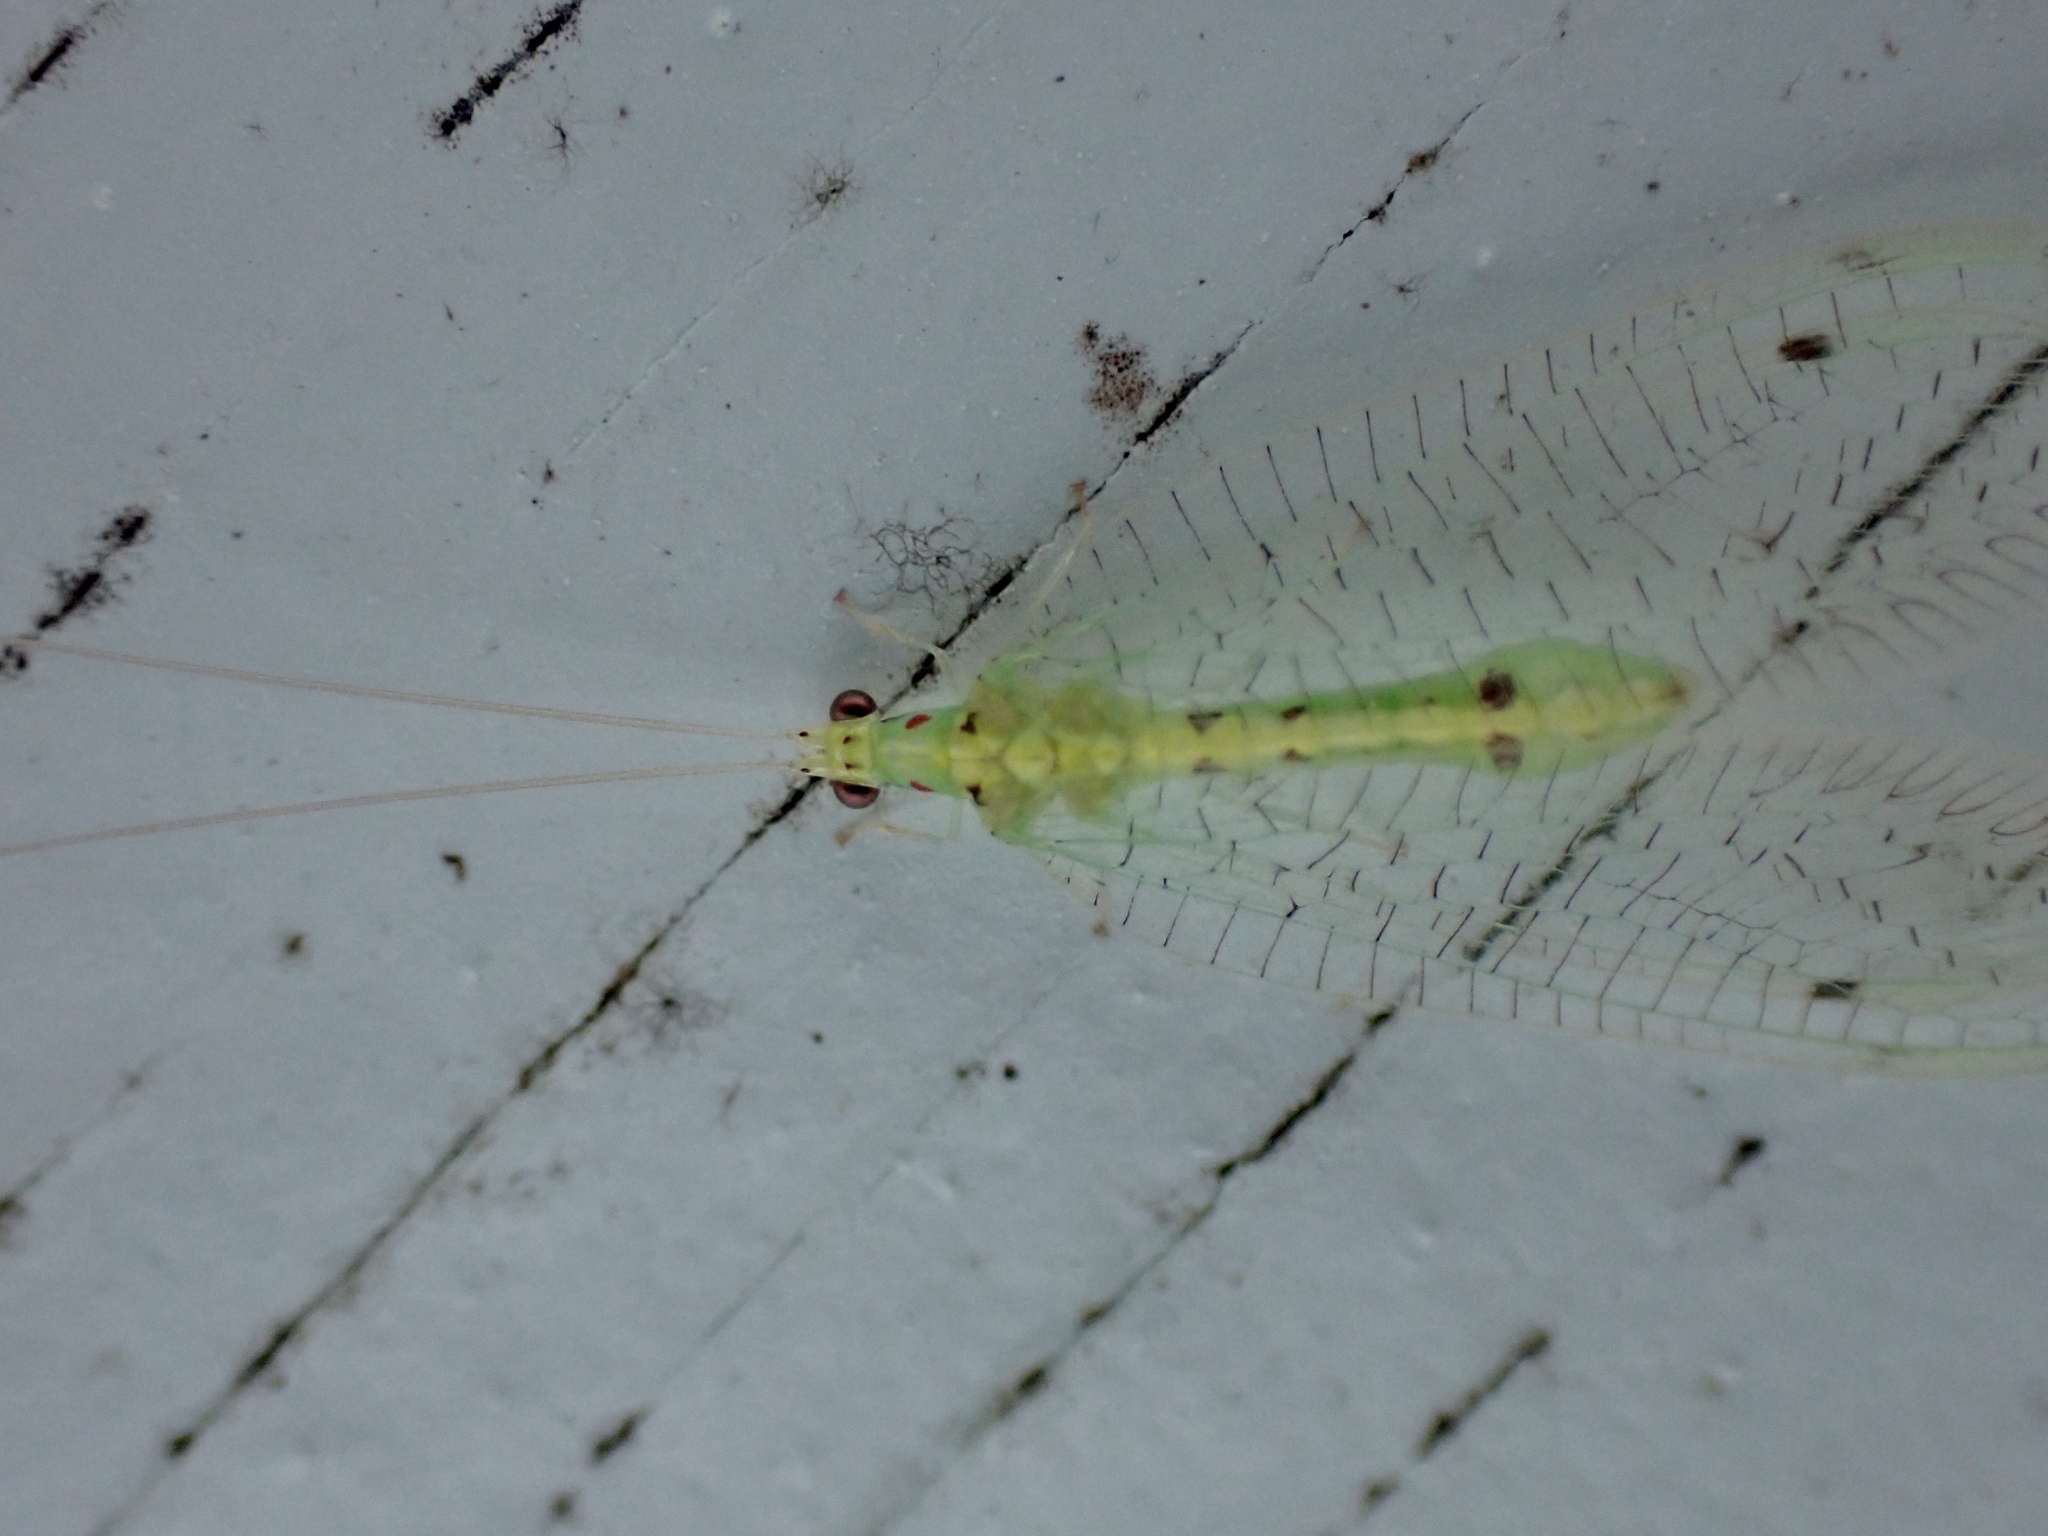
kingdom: Animalia
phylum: Arthropoda
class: Insecta
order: Neuroptera
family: Chrysopidae
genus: Leucochrysa
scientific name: Leucochrysa callota
